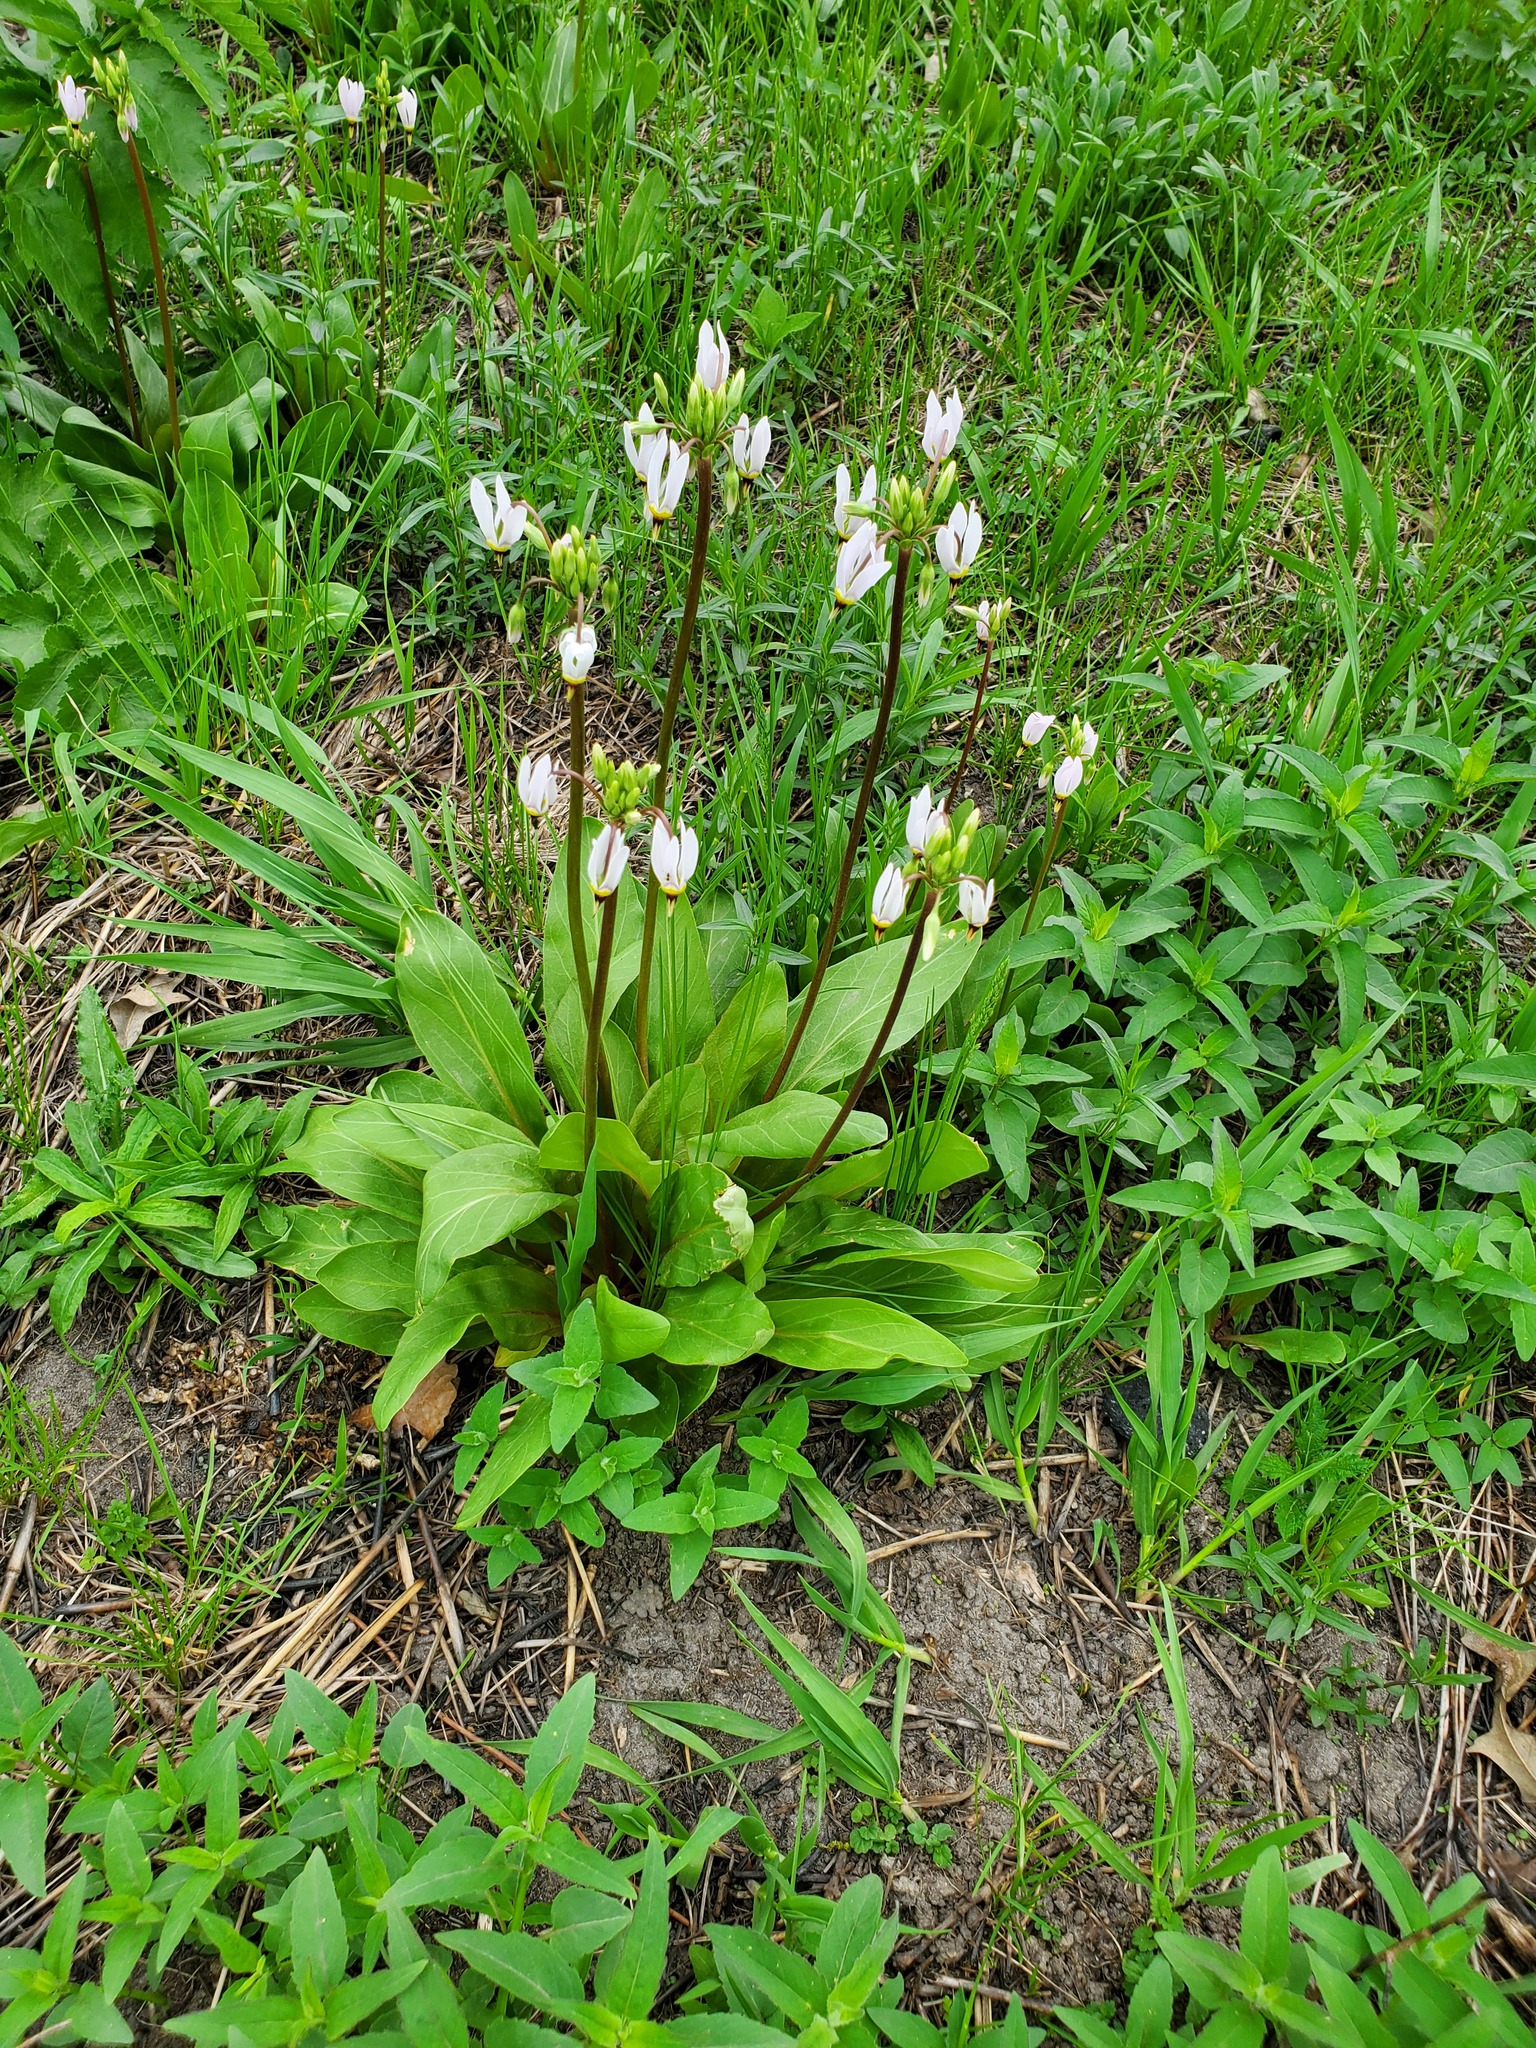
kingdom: Plantae
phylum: Tracheophyta
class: Magnoliopsida
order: Ericales
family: Primulaceae
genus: Dodecatheon
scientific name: Dodecatheon meadia
